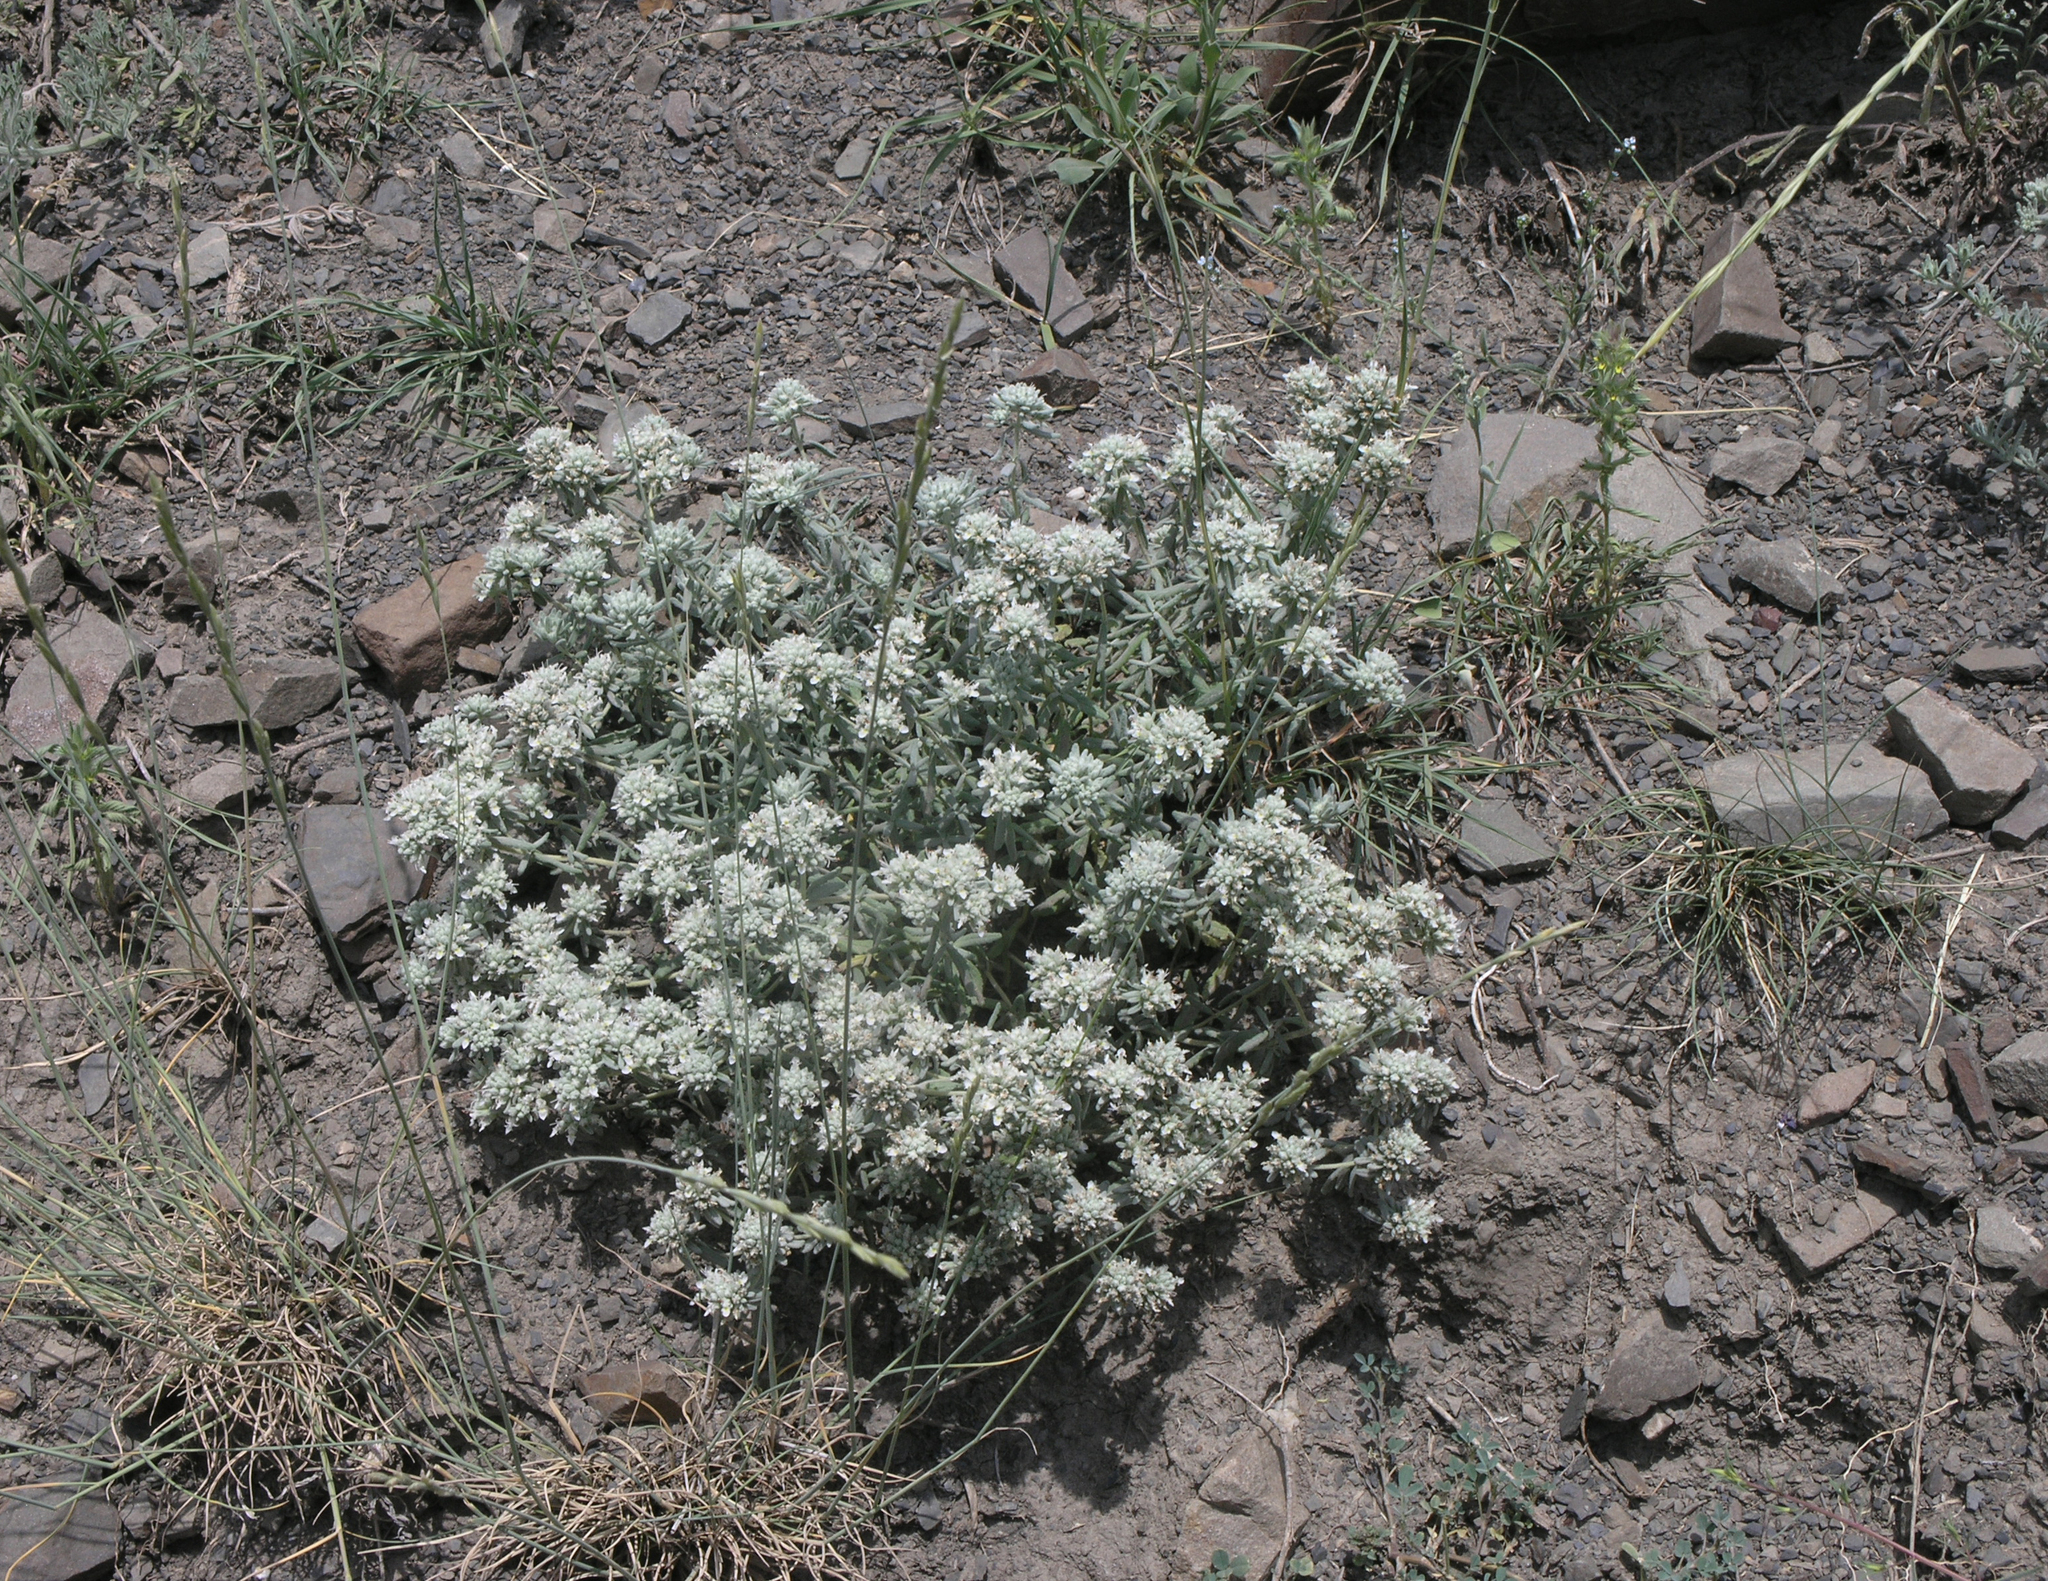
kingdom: Plantae
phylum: Tracheophyta
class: Magnoliopsida
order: Lamiales
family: Lamiaceae
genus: Teucrium
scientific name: Teucrium polium
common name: Poley
